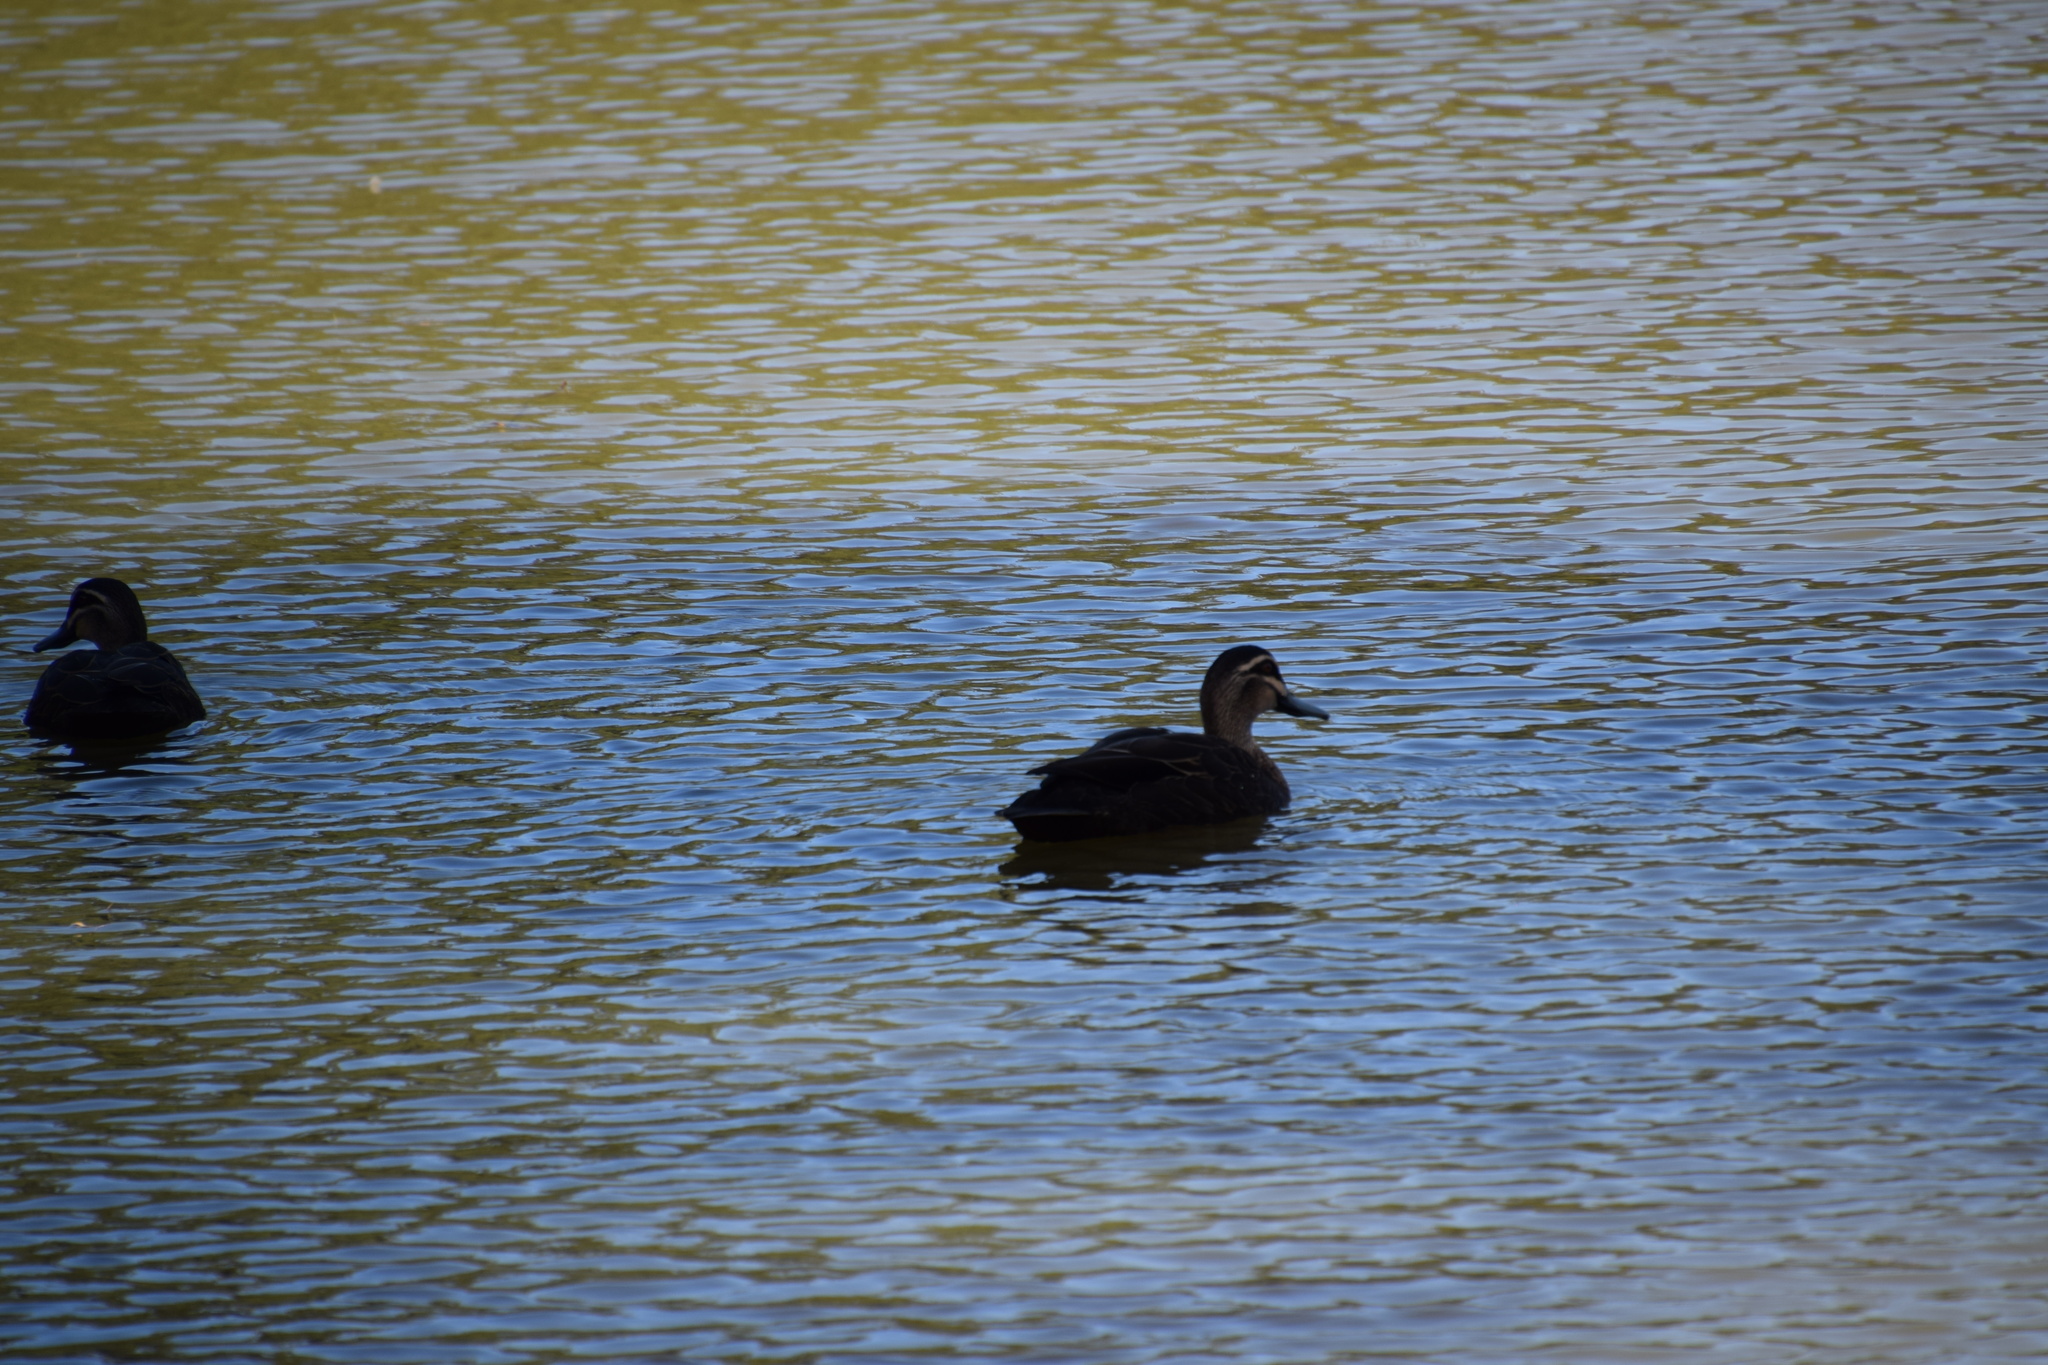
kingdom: Animalia
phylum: Chordata
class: Aves
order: Anseriformes
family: Anatidae
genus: Anas
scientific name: Anas superciliosa
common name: Pacific black duck
